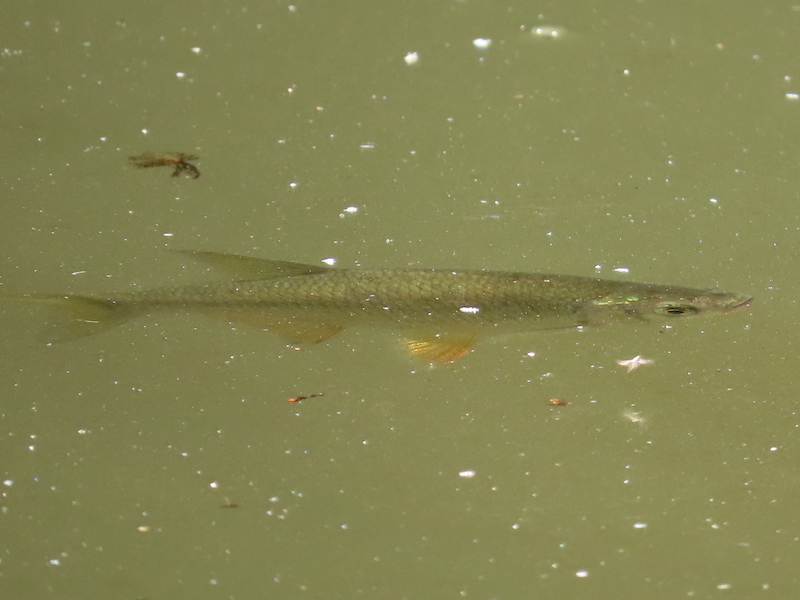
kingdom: Animalia
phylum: Chordata
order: Cypriniformes
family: Cyprinidae
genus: Notemigonus
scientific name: Notemigonus crysoleucas
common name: Golden shiner
